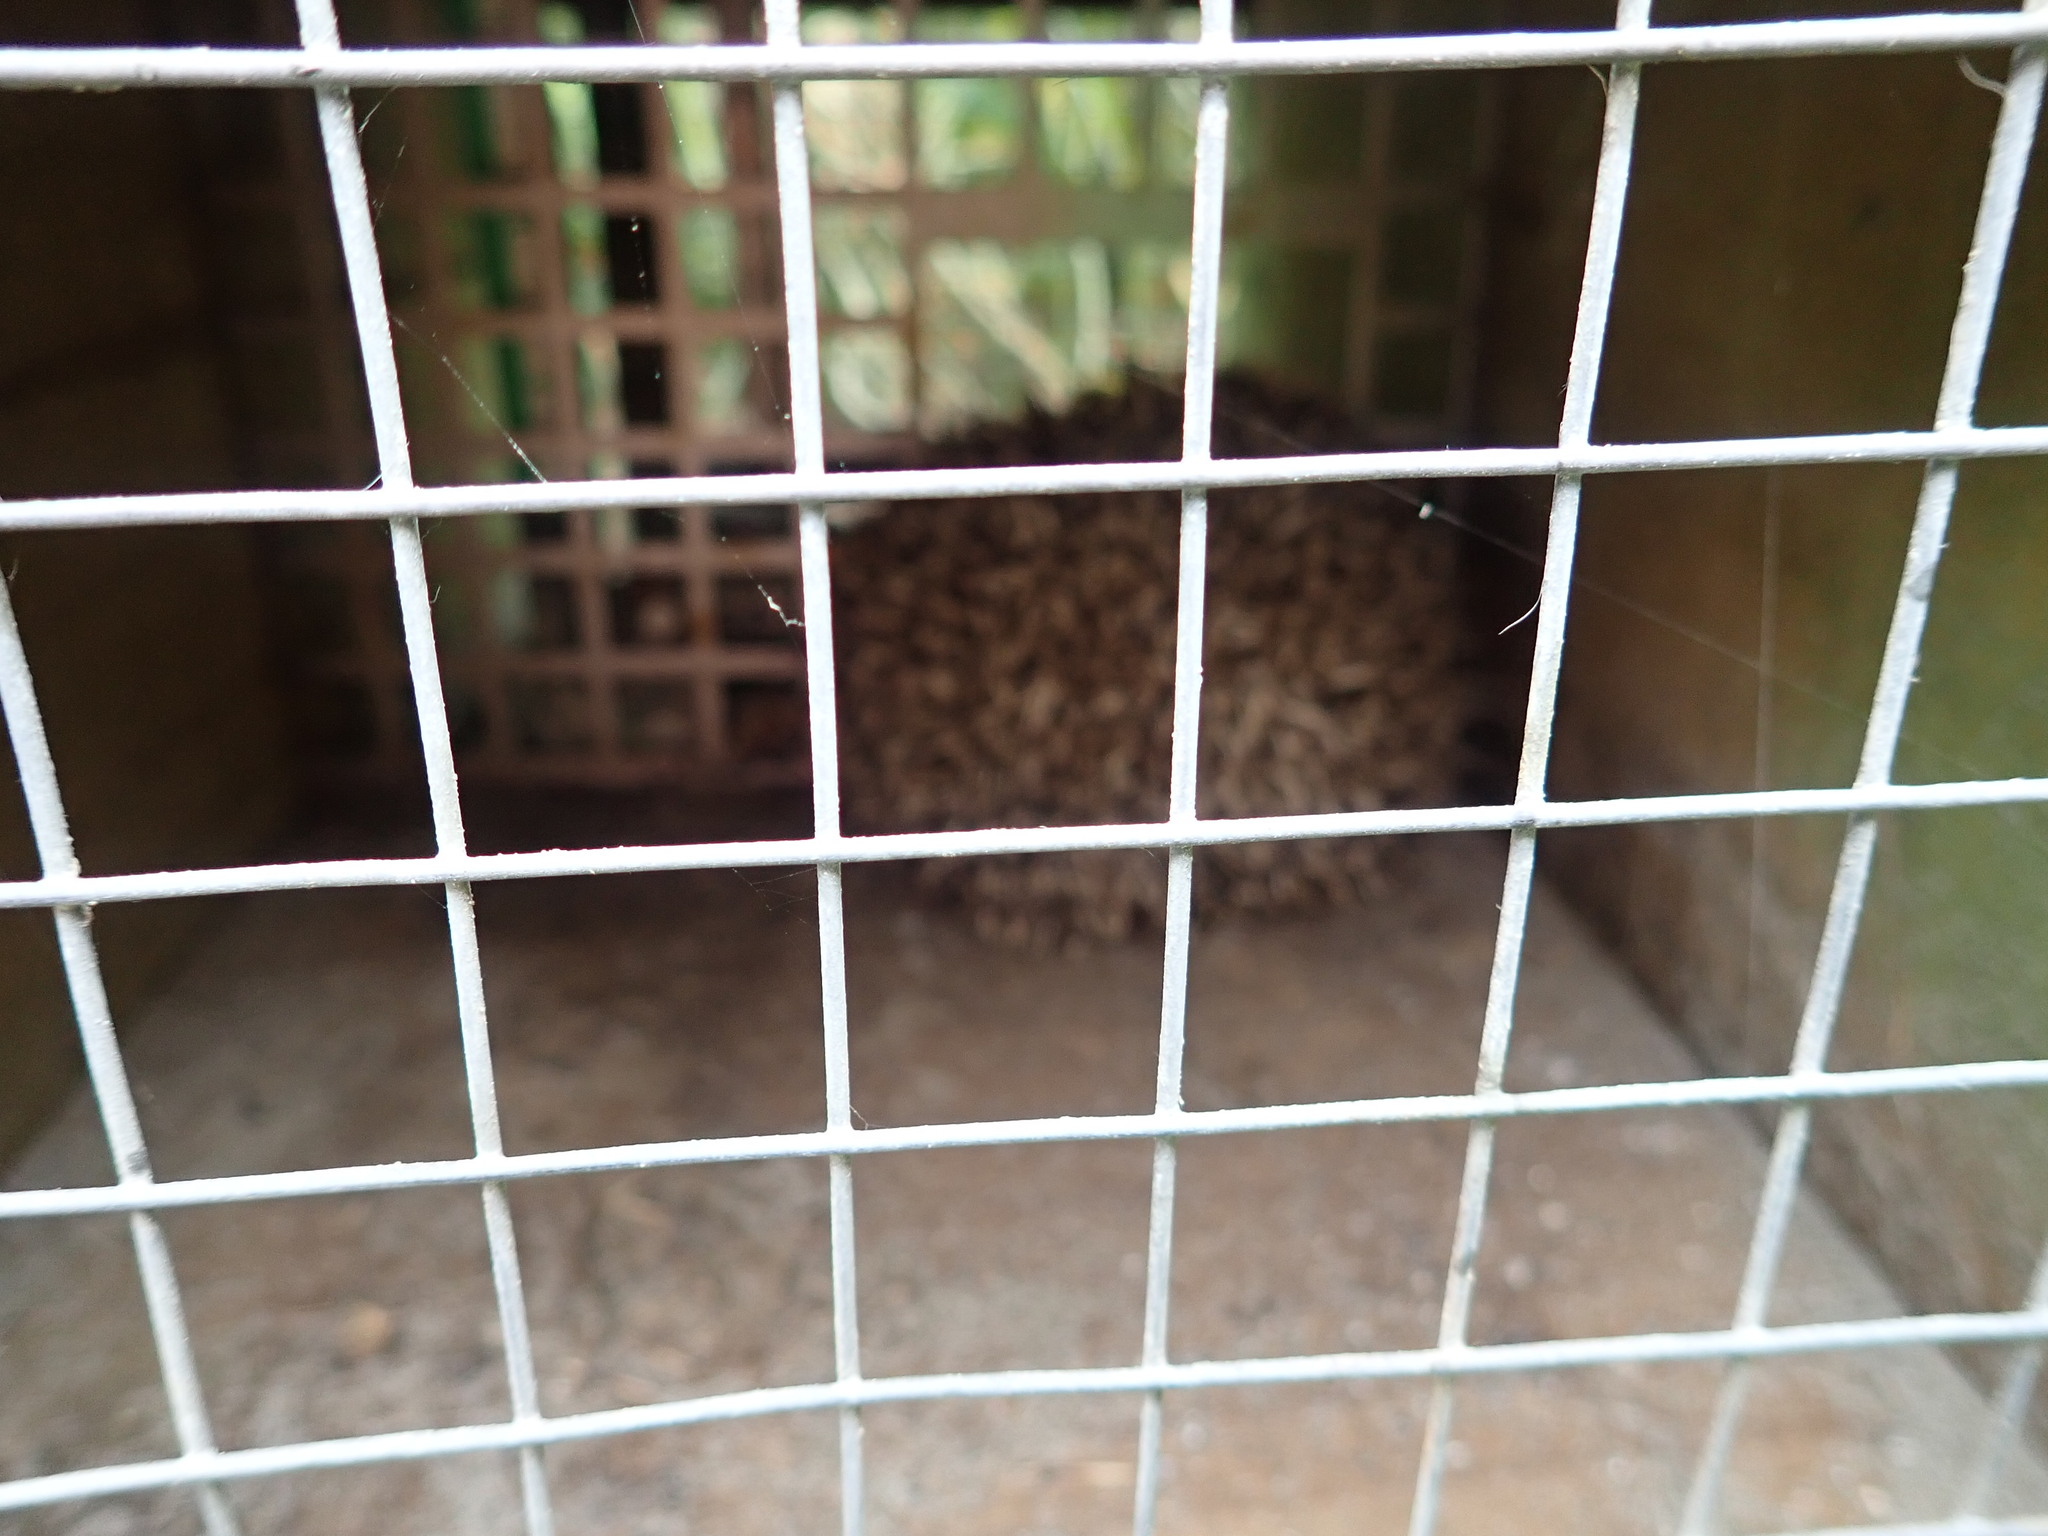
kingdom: Animalia
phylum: Chordata
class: Mammalia
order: Erinaceomorpha
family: Erinaceidae
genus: Erinaceus
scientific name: Erinaceus europaeus
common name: West european hedgehog
